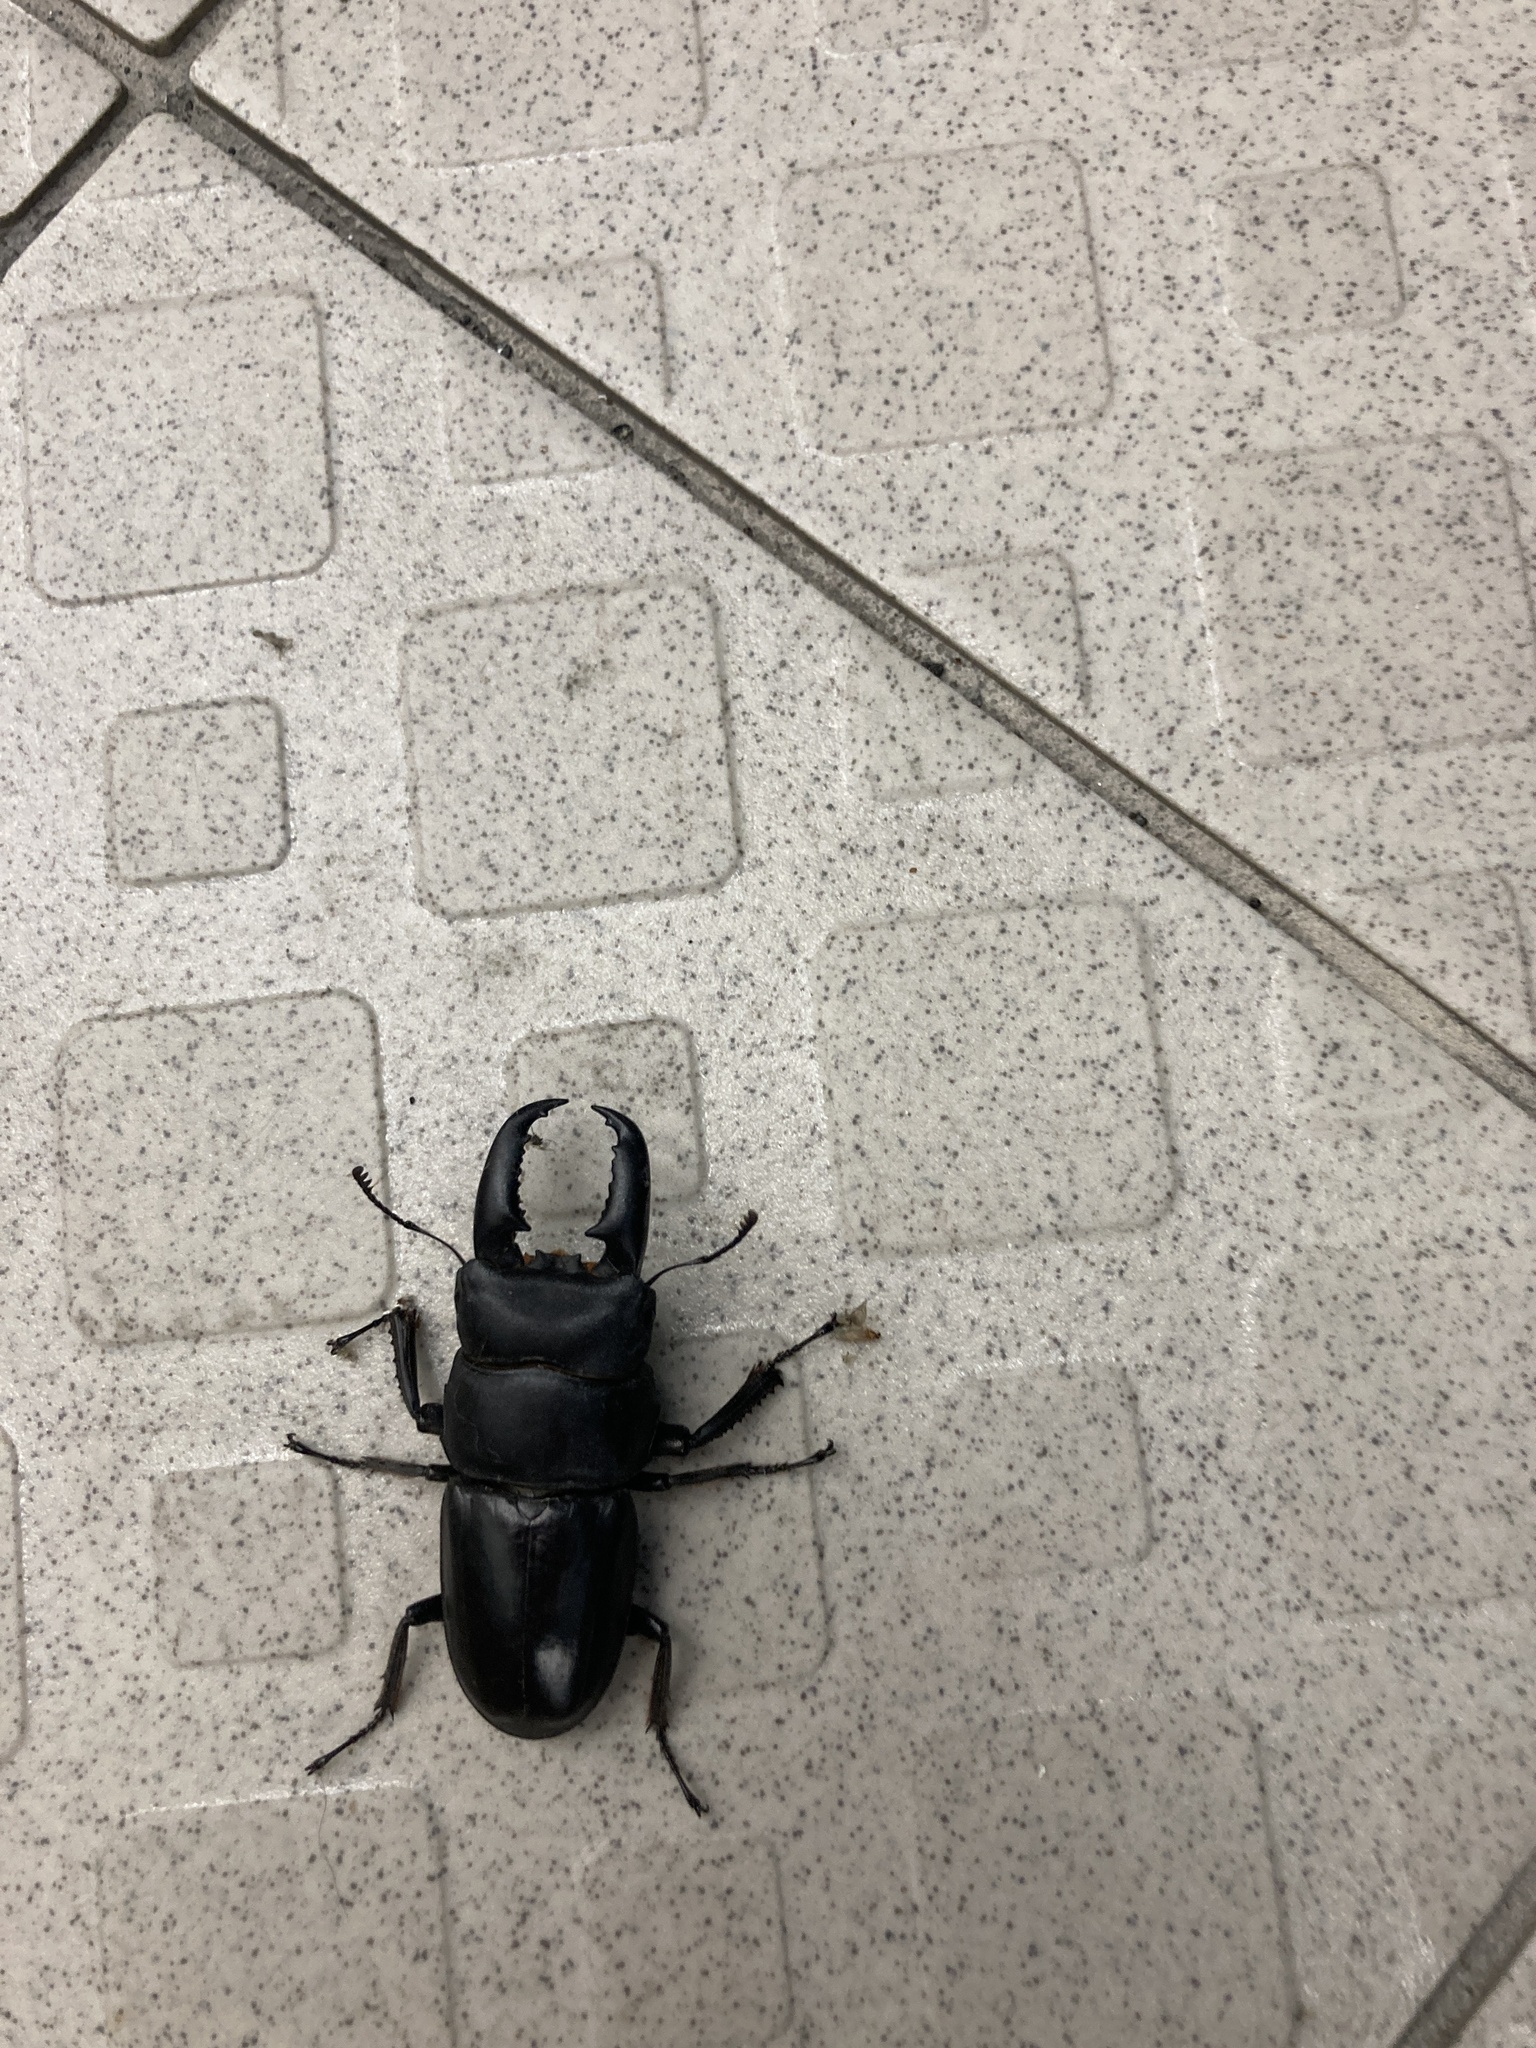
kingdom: Animalia
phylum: Arthropoda
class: Insecta
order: Coleoptera
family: Lucanidae
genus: Serrognathus
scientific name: Serrognathus titanus
